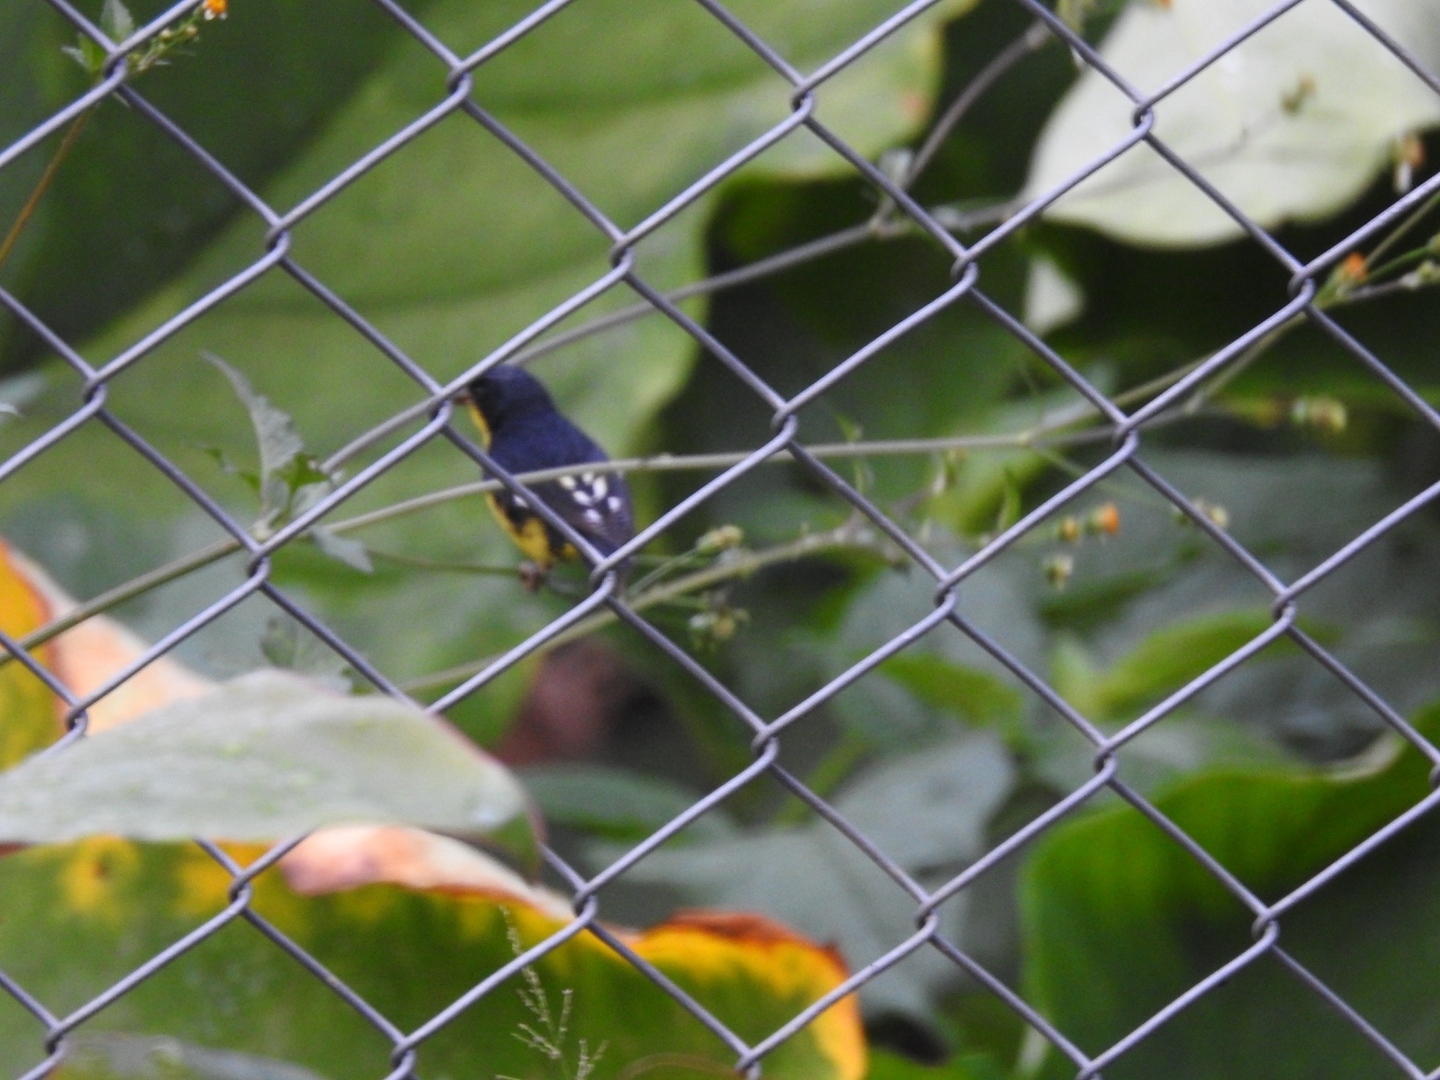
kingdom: Animalia
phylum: Chordata
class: Aves
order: Passeriformes
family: Fringillidae
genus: Spinus
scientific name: Spinus psaltria
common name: Lesser goldfinch
